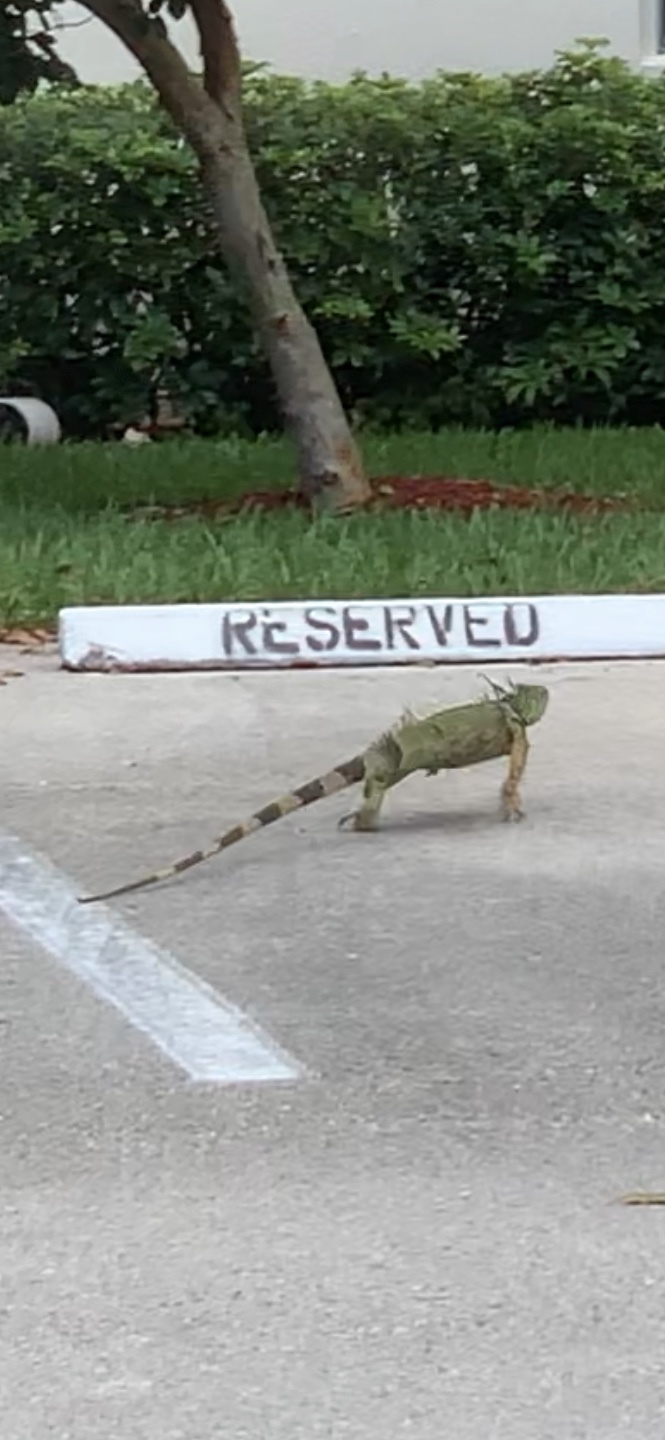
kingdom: Animalia
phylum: Chordata
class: Squamata
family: Iguanidae
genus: Iguana
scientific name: Iguana iguana
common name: Green iguana
